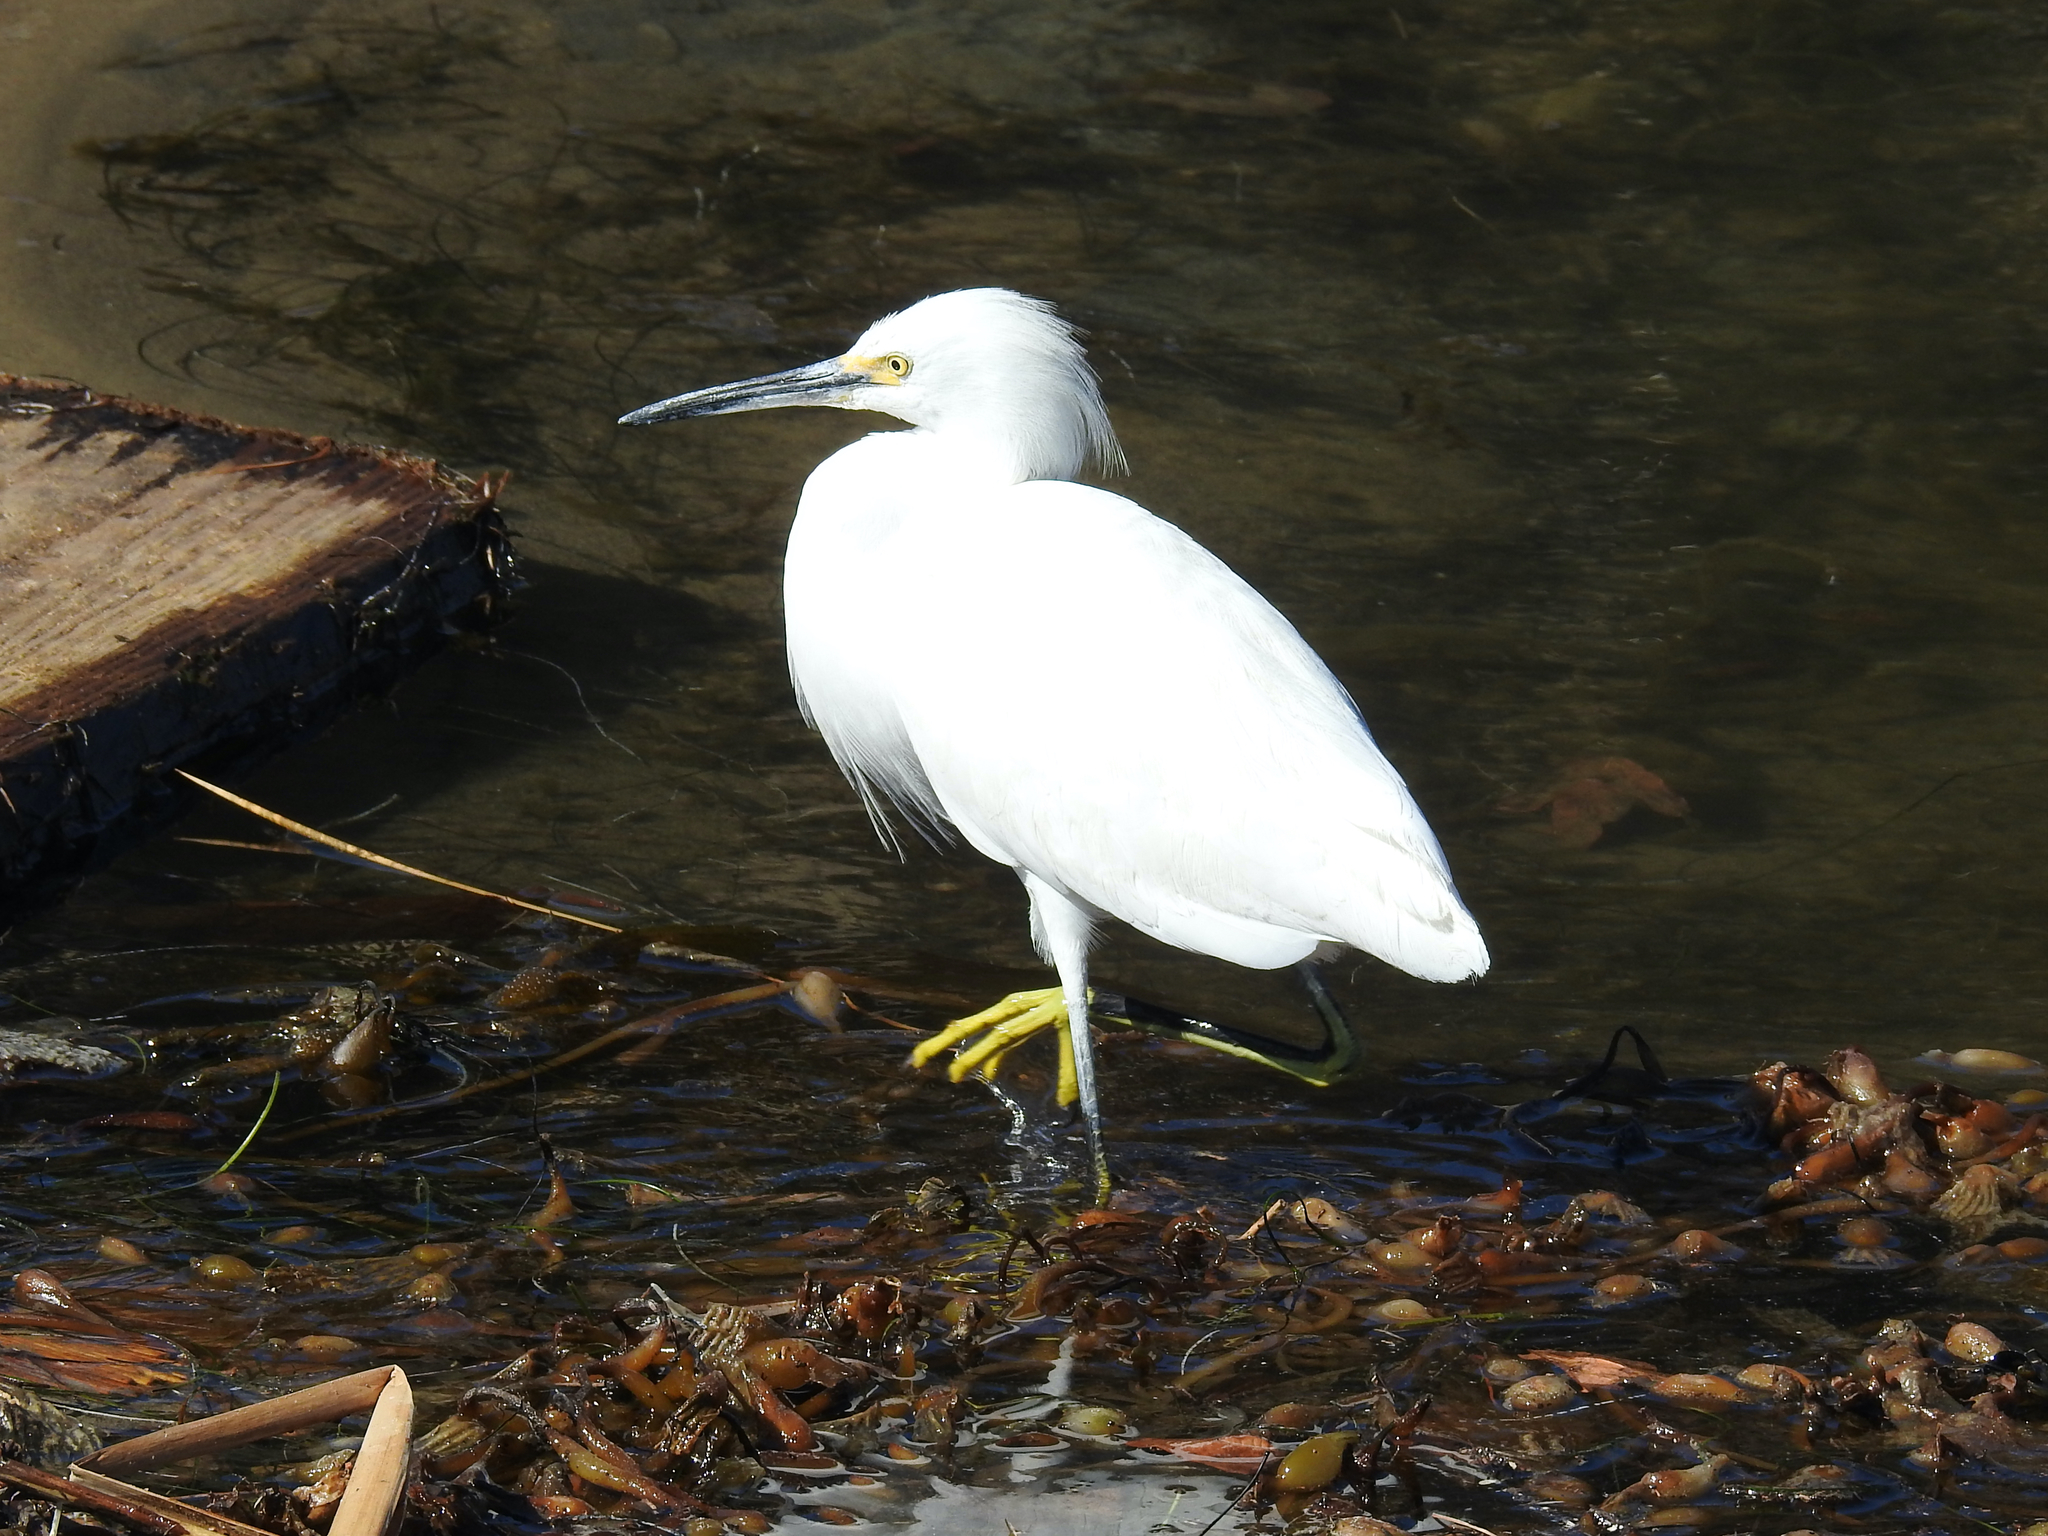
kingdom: Animalia
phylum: Chordata
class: Aves
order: Pelecaniformes
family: Ardeidae
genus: Egretta
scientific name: Egretta thula
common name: Snowy egret
